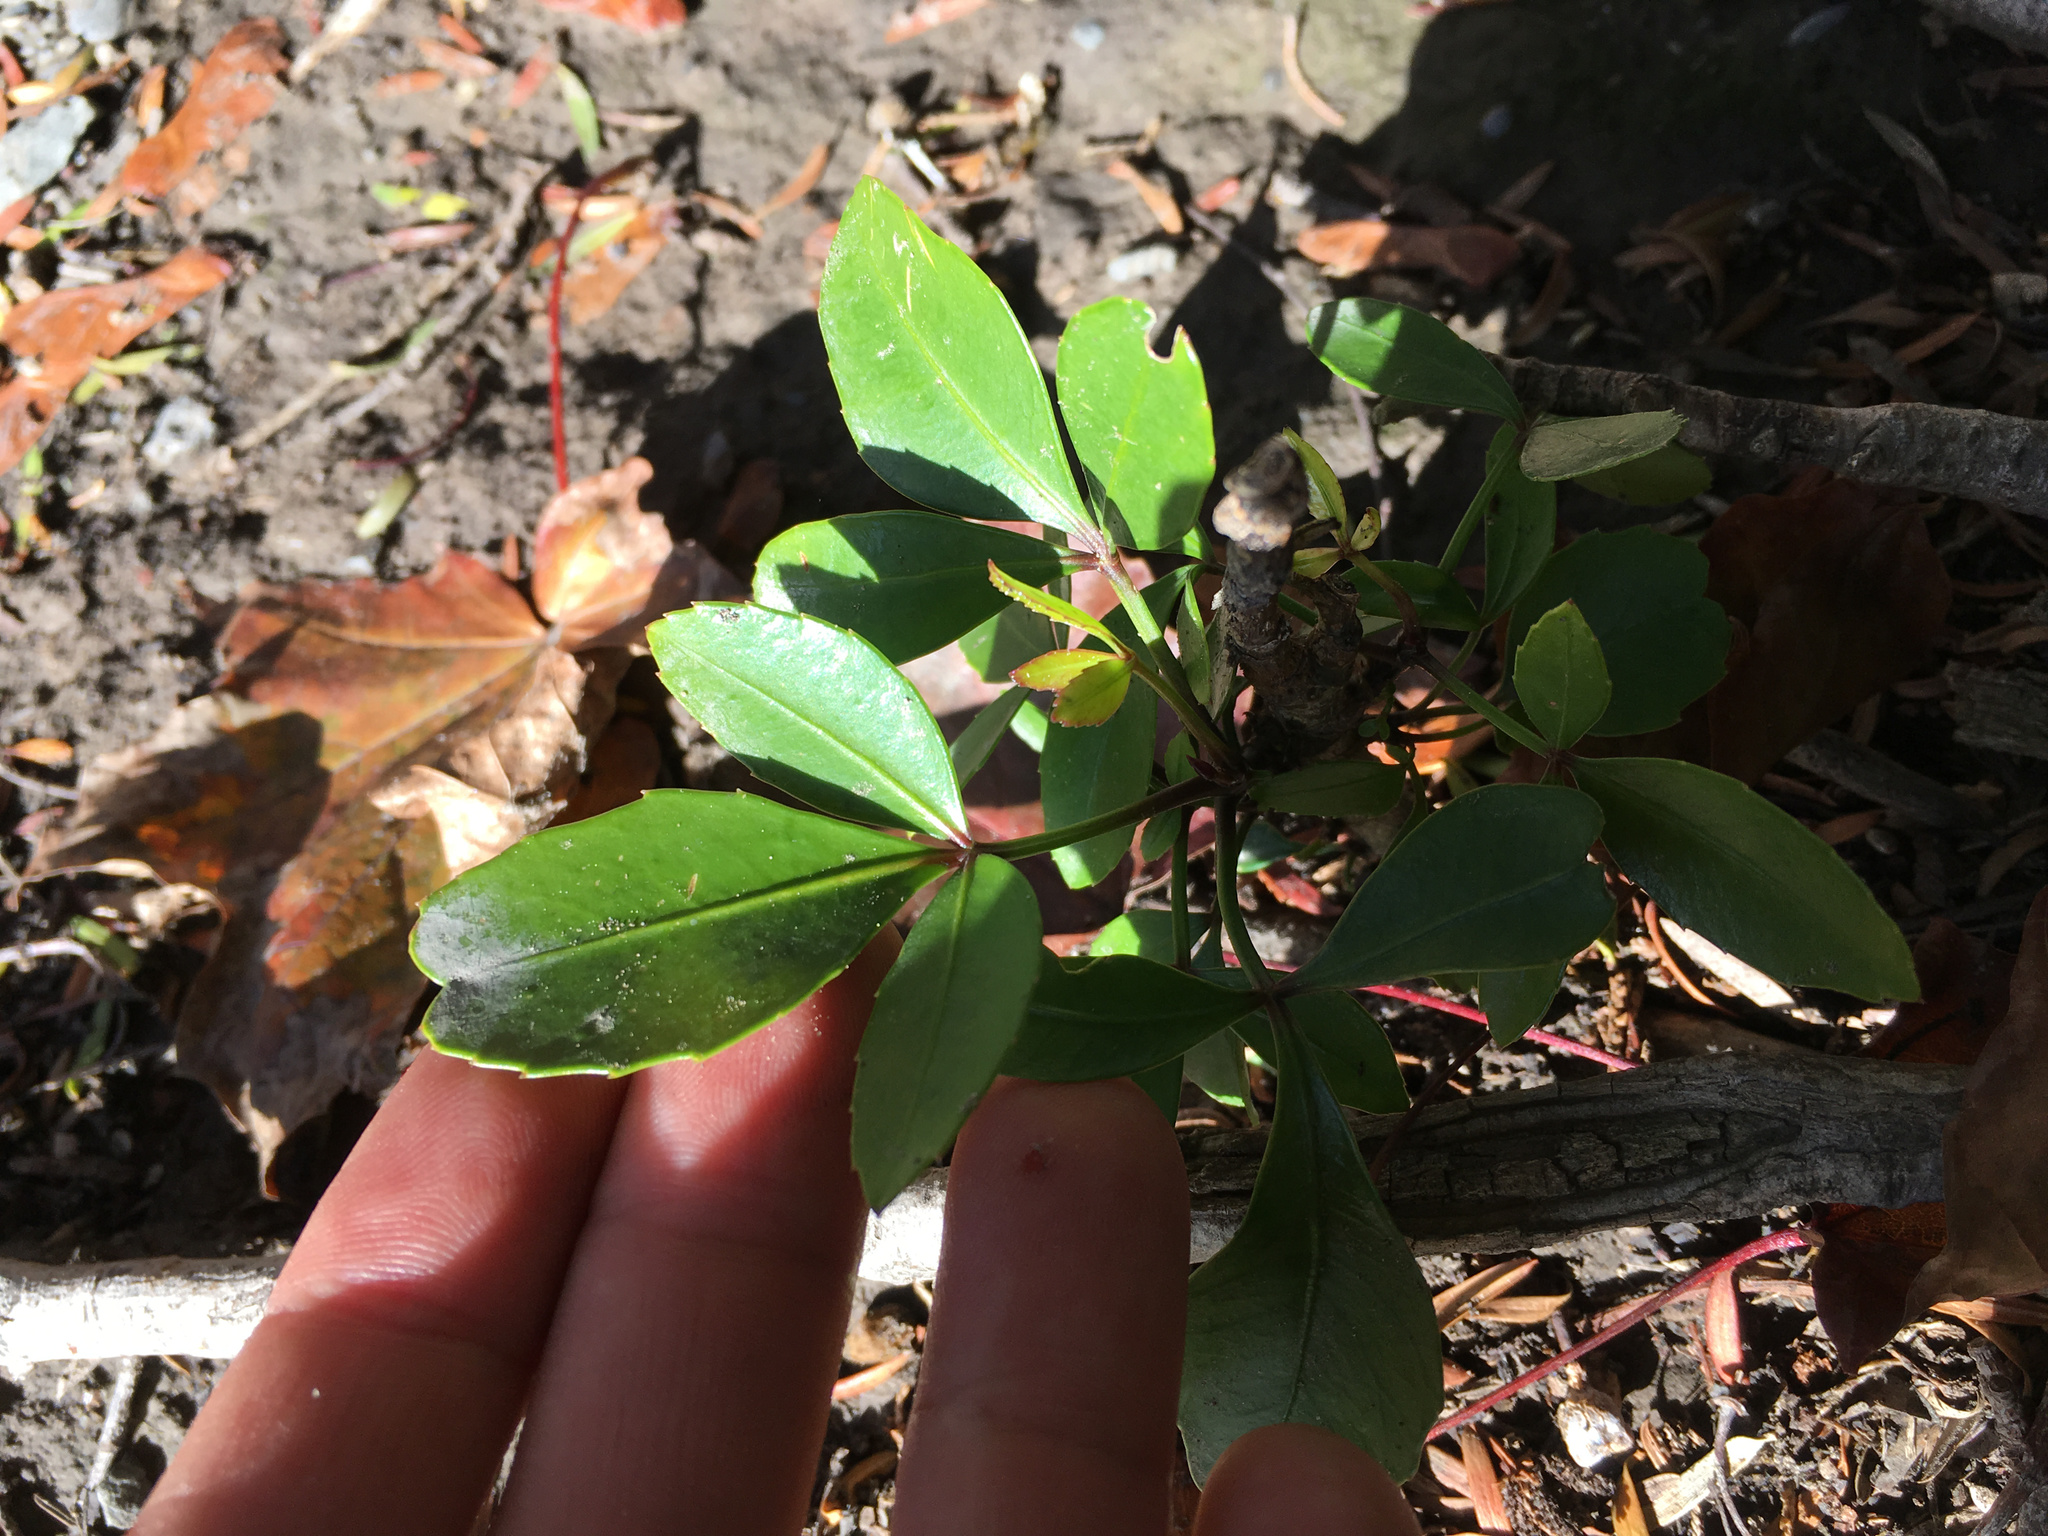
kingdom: Plantae
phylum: Tracheophyta
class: Magnoliopsida
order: Apiales
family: Araliaceae
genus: Pseudopanax
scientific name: Pseudopanax lessonii
